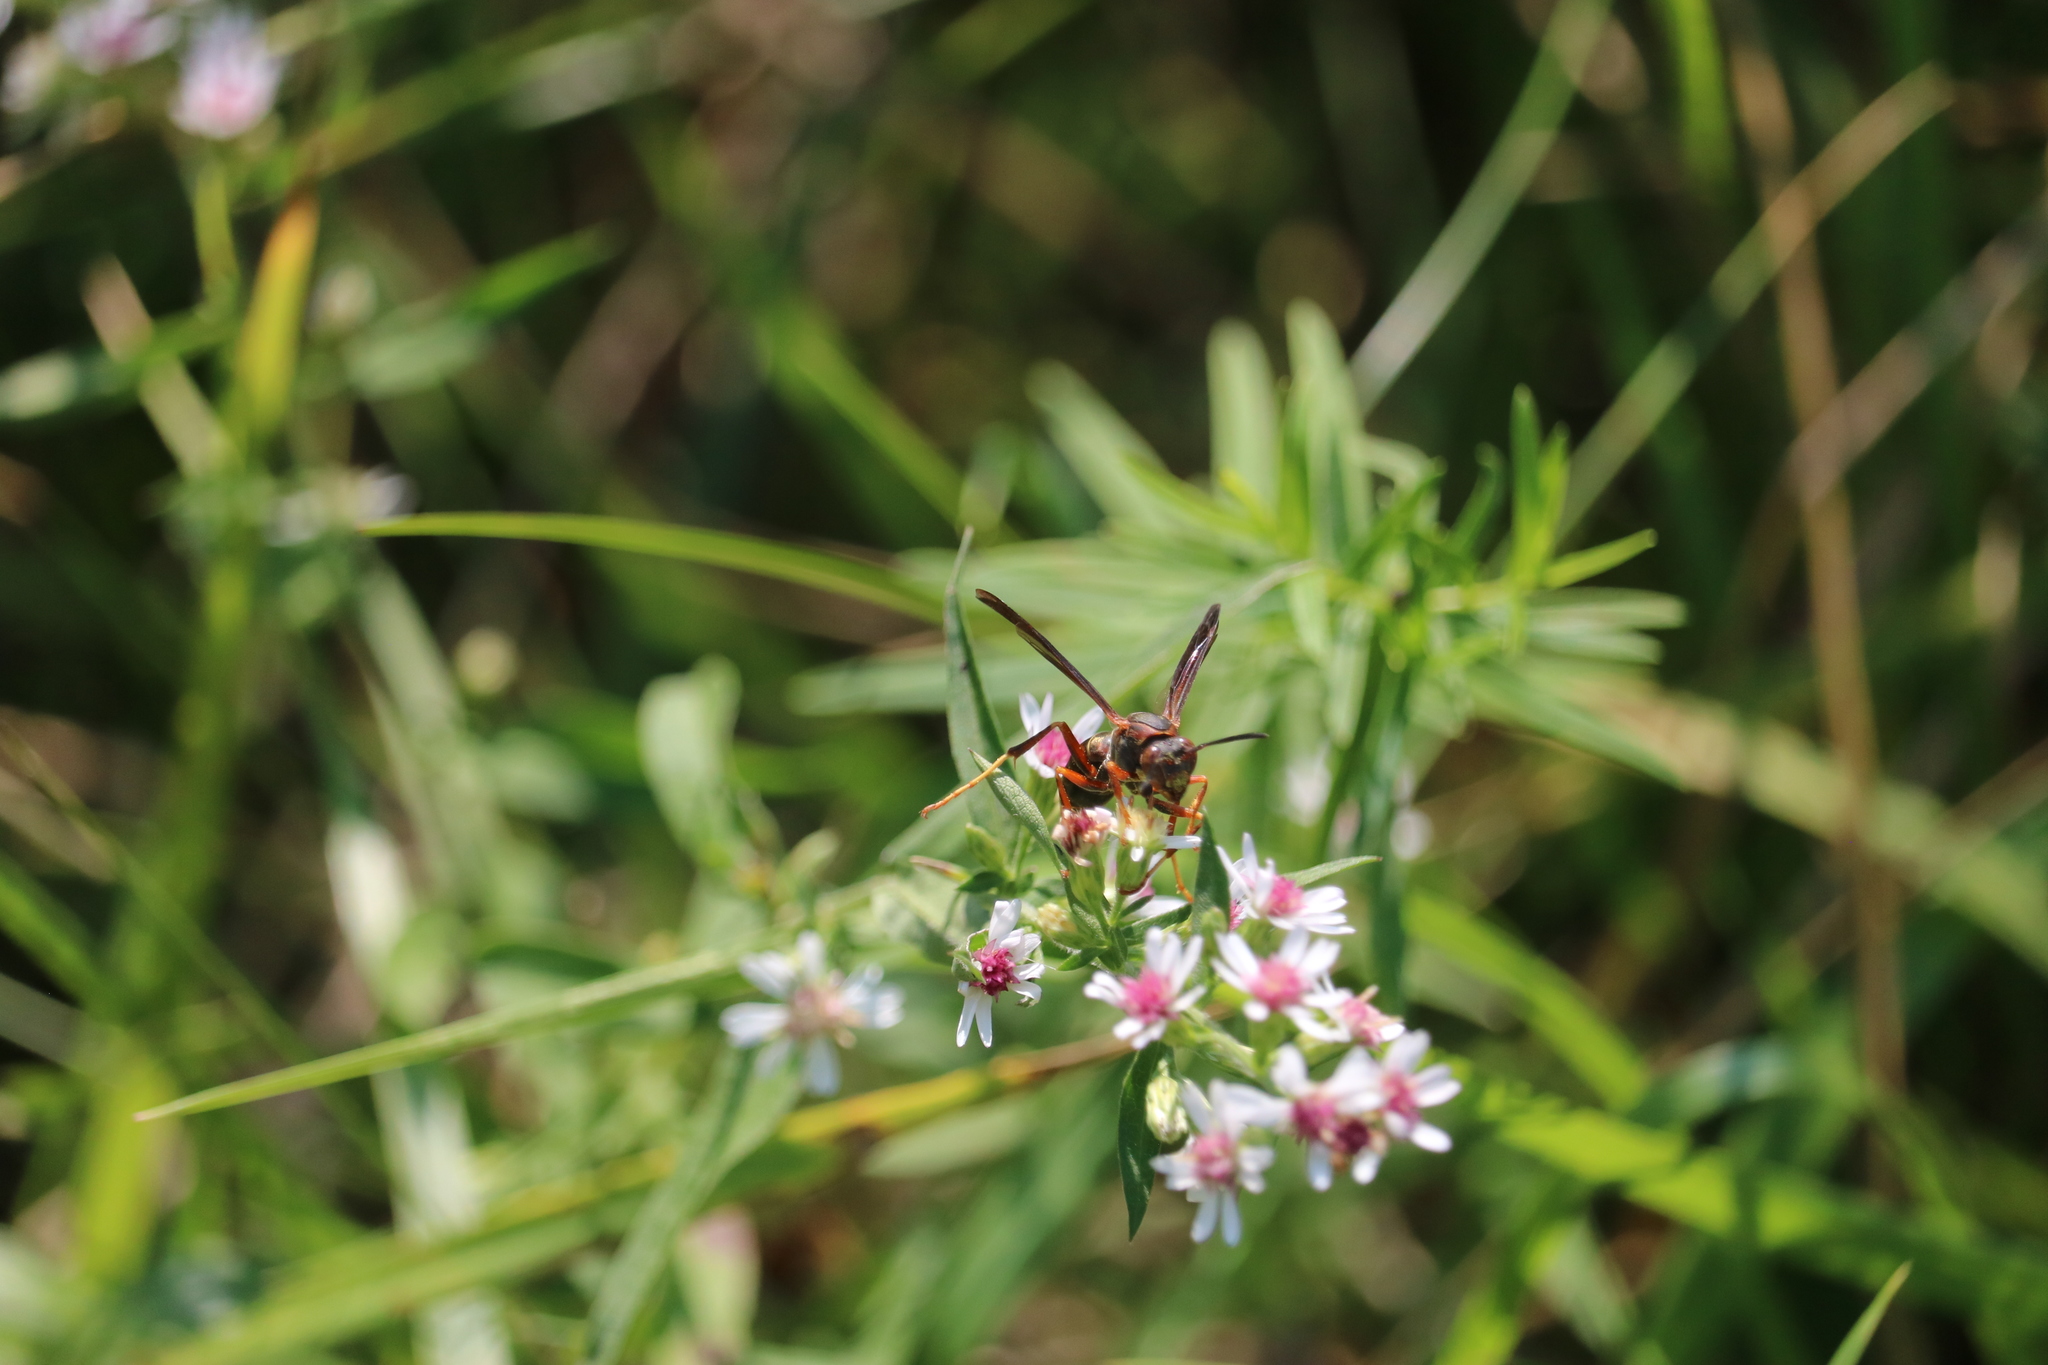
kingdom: Animalia
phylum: Arthropoda
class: Insecta
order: Hymenoptera
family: Eumenidae
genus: Polistes
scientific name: Polistes metricus
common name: Metric paper wasp
